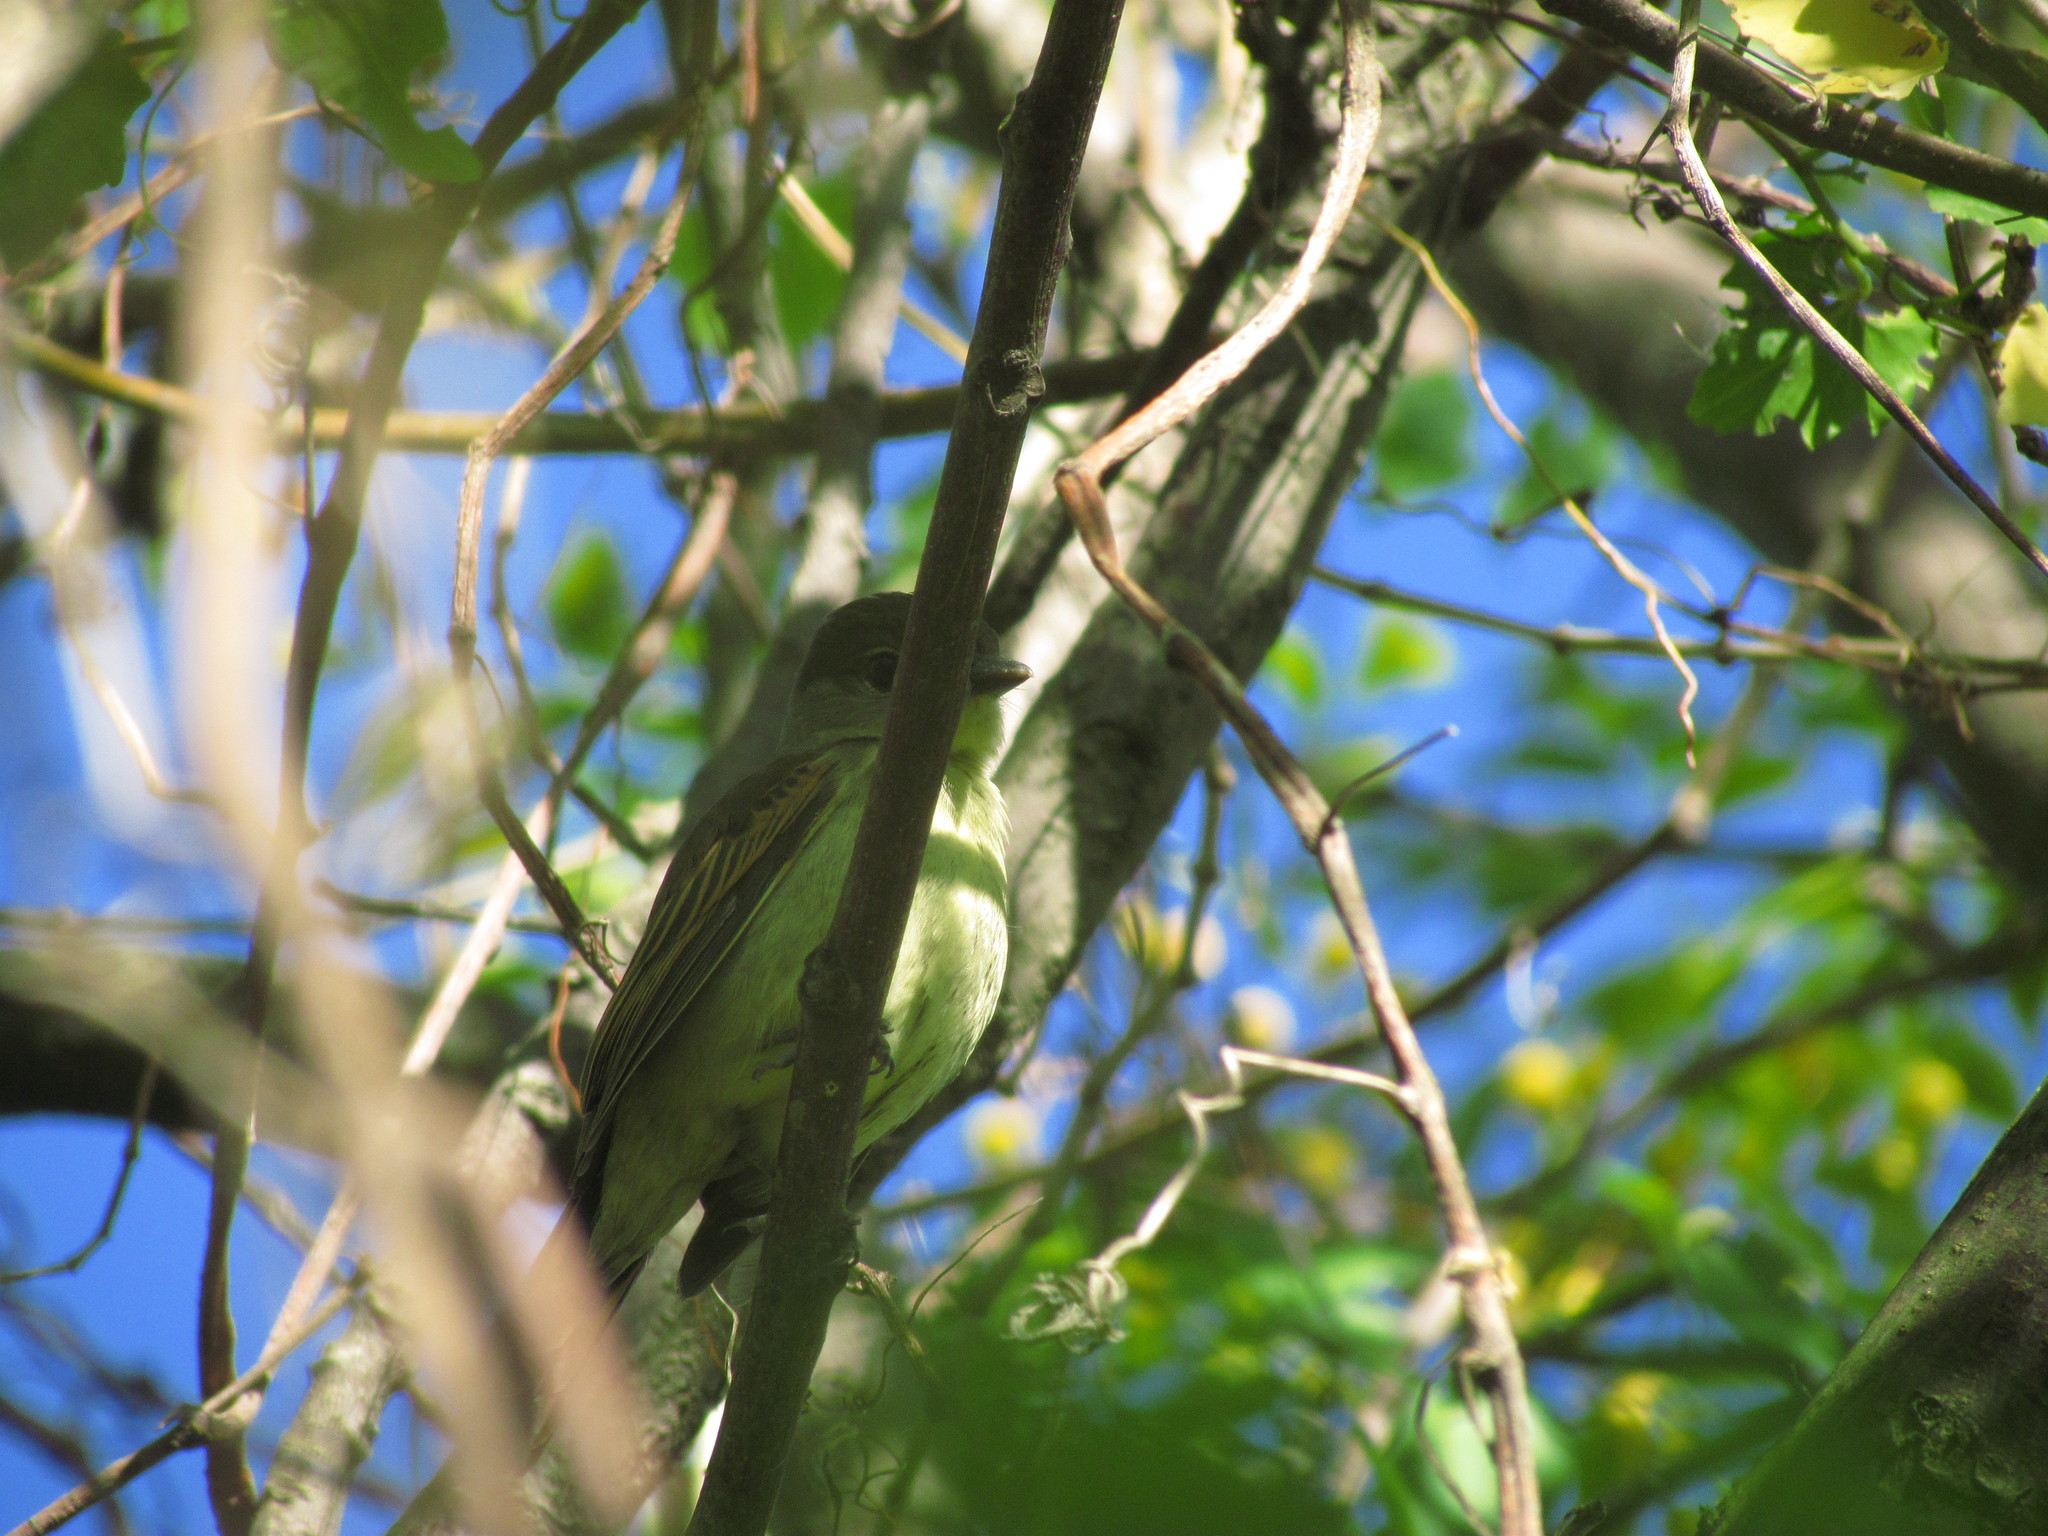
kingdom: Animalia
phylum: Chordata
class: Aves
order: Passeriformes
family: Cotingidae
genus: Pachyramphus
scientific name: Pachyramphus polychopterus
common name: White-winged becard
